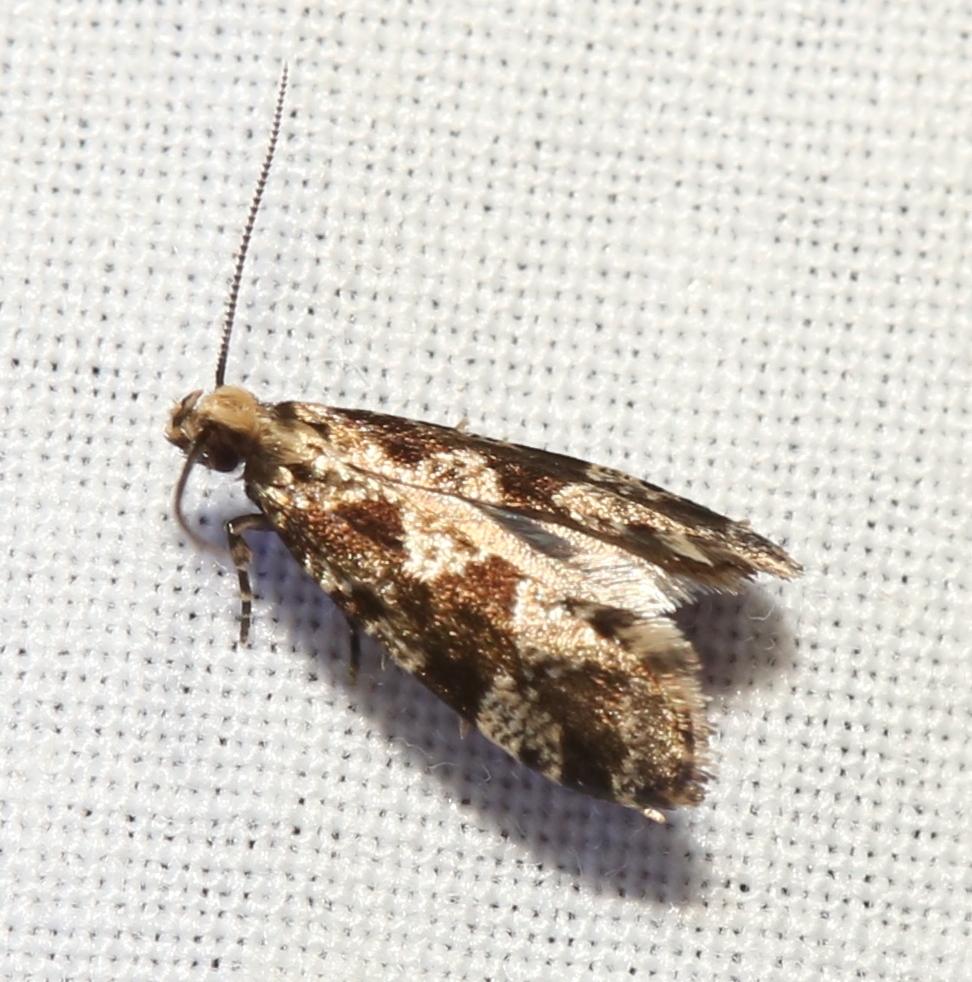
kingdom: Animalia
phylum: Arthropoda
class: Insecta
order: Lepidoptera
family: Tineidae
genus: Scardiella
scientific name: Scardiella approximatella
